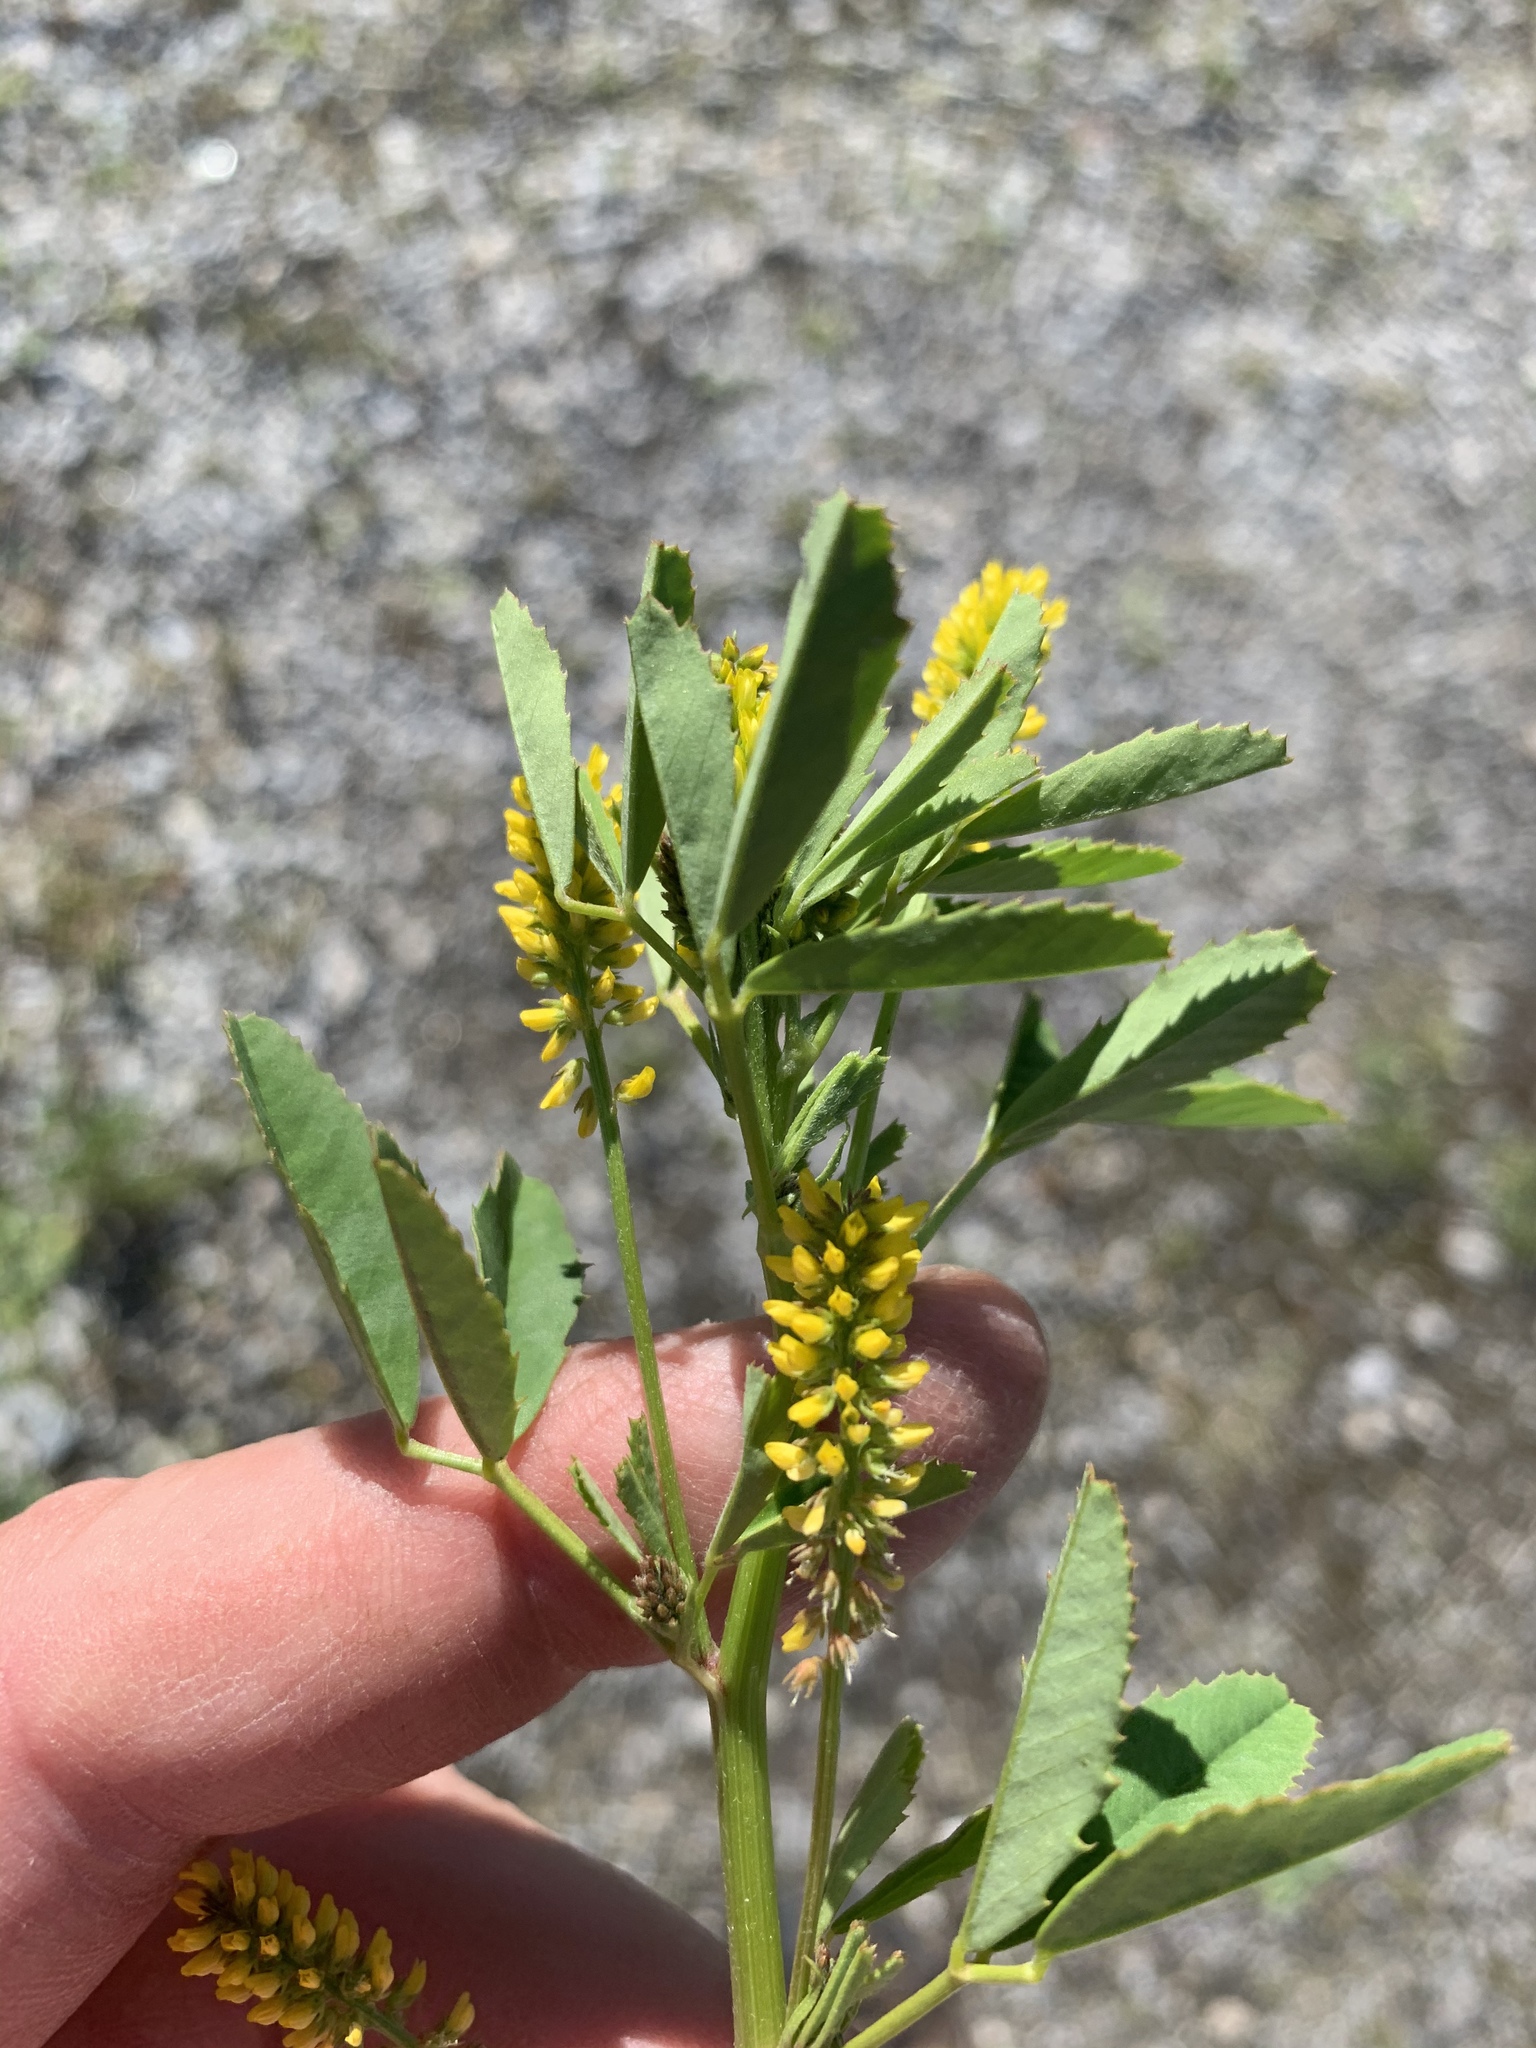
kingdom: Plantae
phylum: Tracheophyta
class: Magnoliopsida
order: Fabales
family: Fabaceae
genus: Melilotus
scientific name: Melilotus indicus
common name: Small melilot
